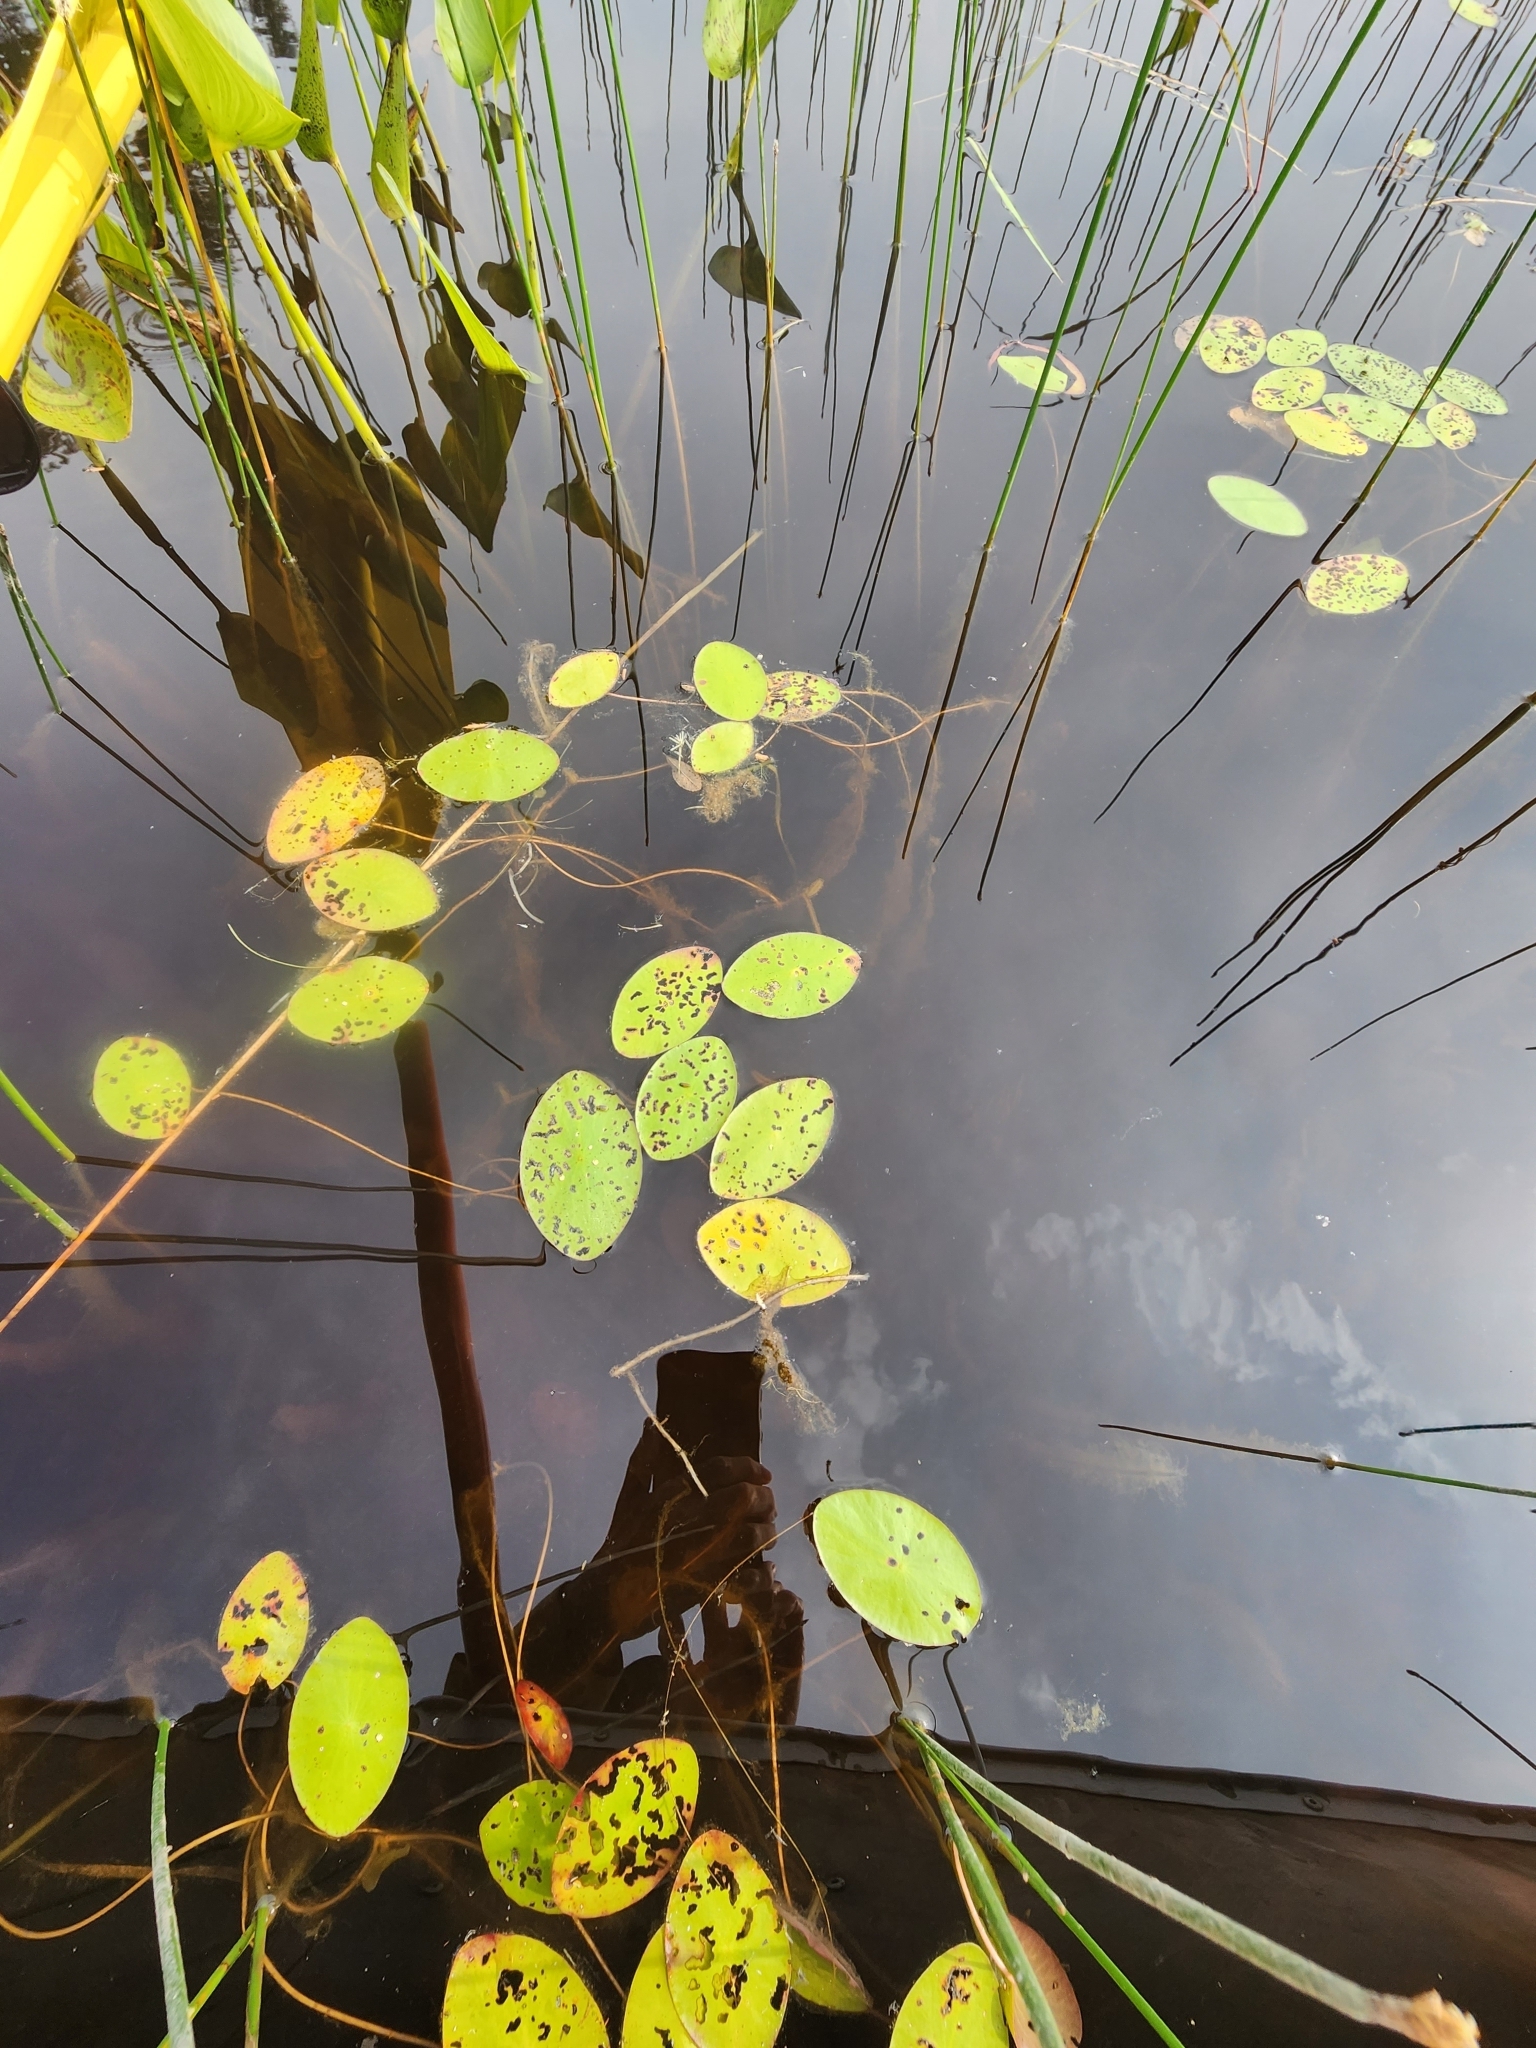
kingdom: Plantae
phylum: Tracheophyta
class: Magnoliopsida
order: Nymphaeales
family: Cabombaceae
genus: Brasenia
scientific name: Brasenia schreberi
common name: Water-shield
